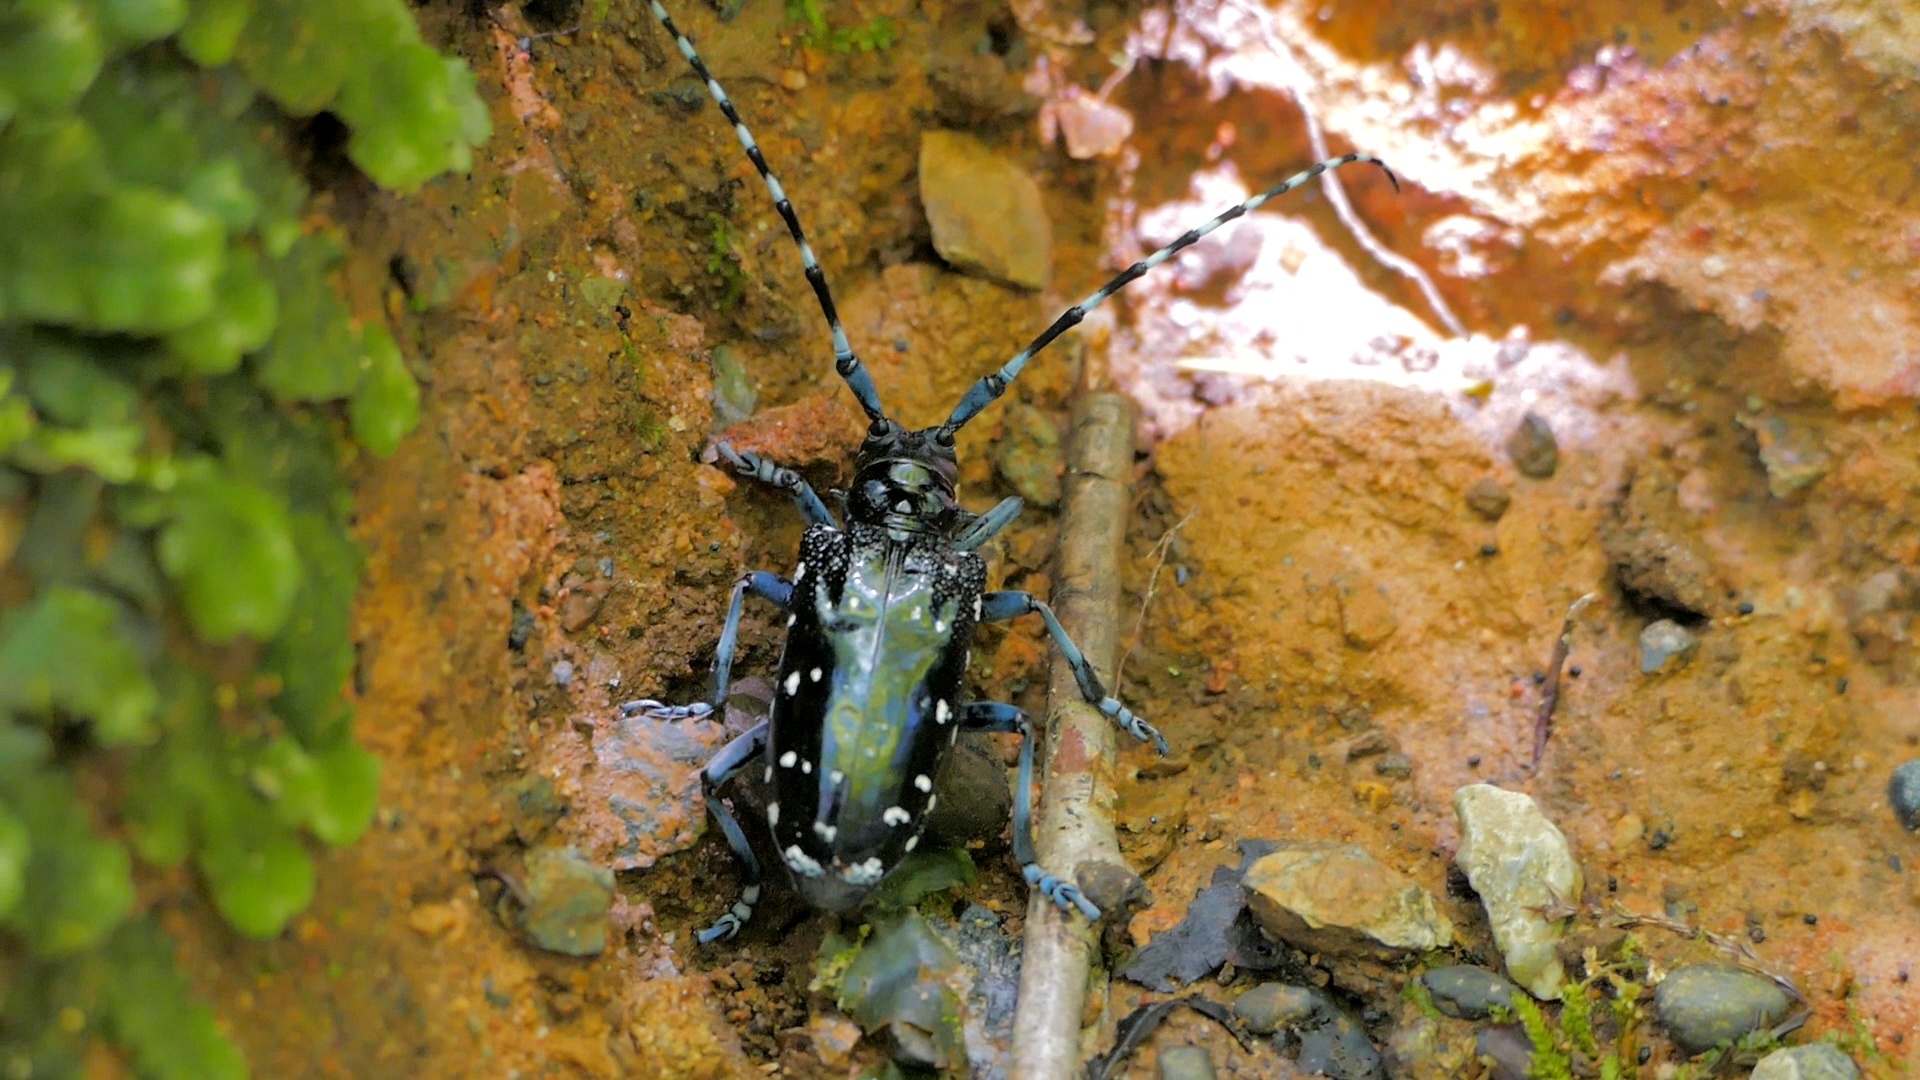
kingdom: Animalia
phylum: Arthropoda
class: Insecta
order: Coleoptera
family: Cerambycidae
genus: Anoplophora
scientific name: Anoplophora chinensis
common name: Citrus longhorned beetle
